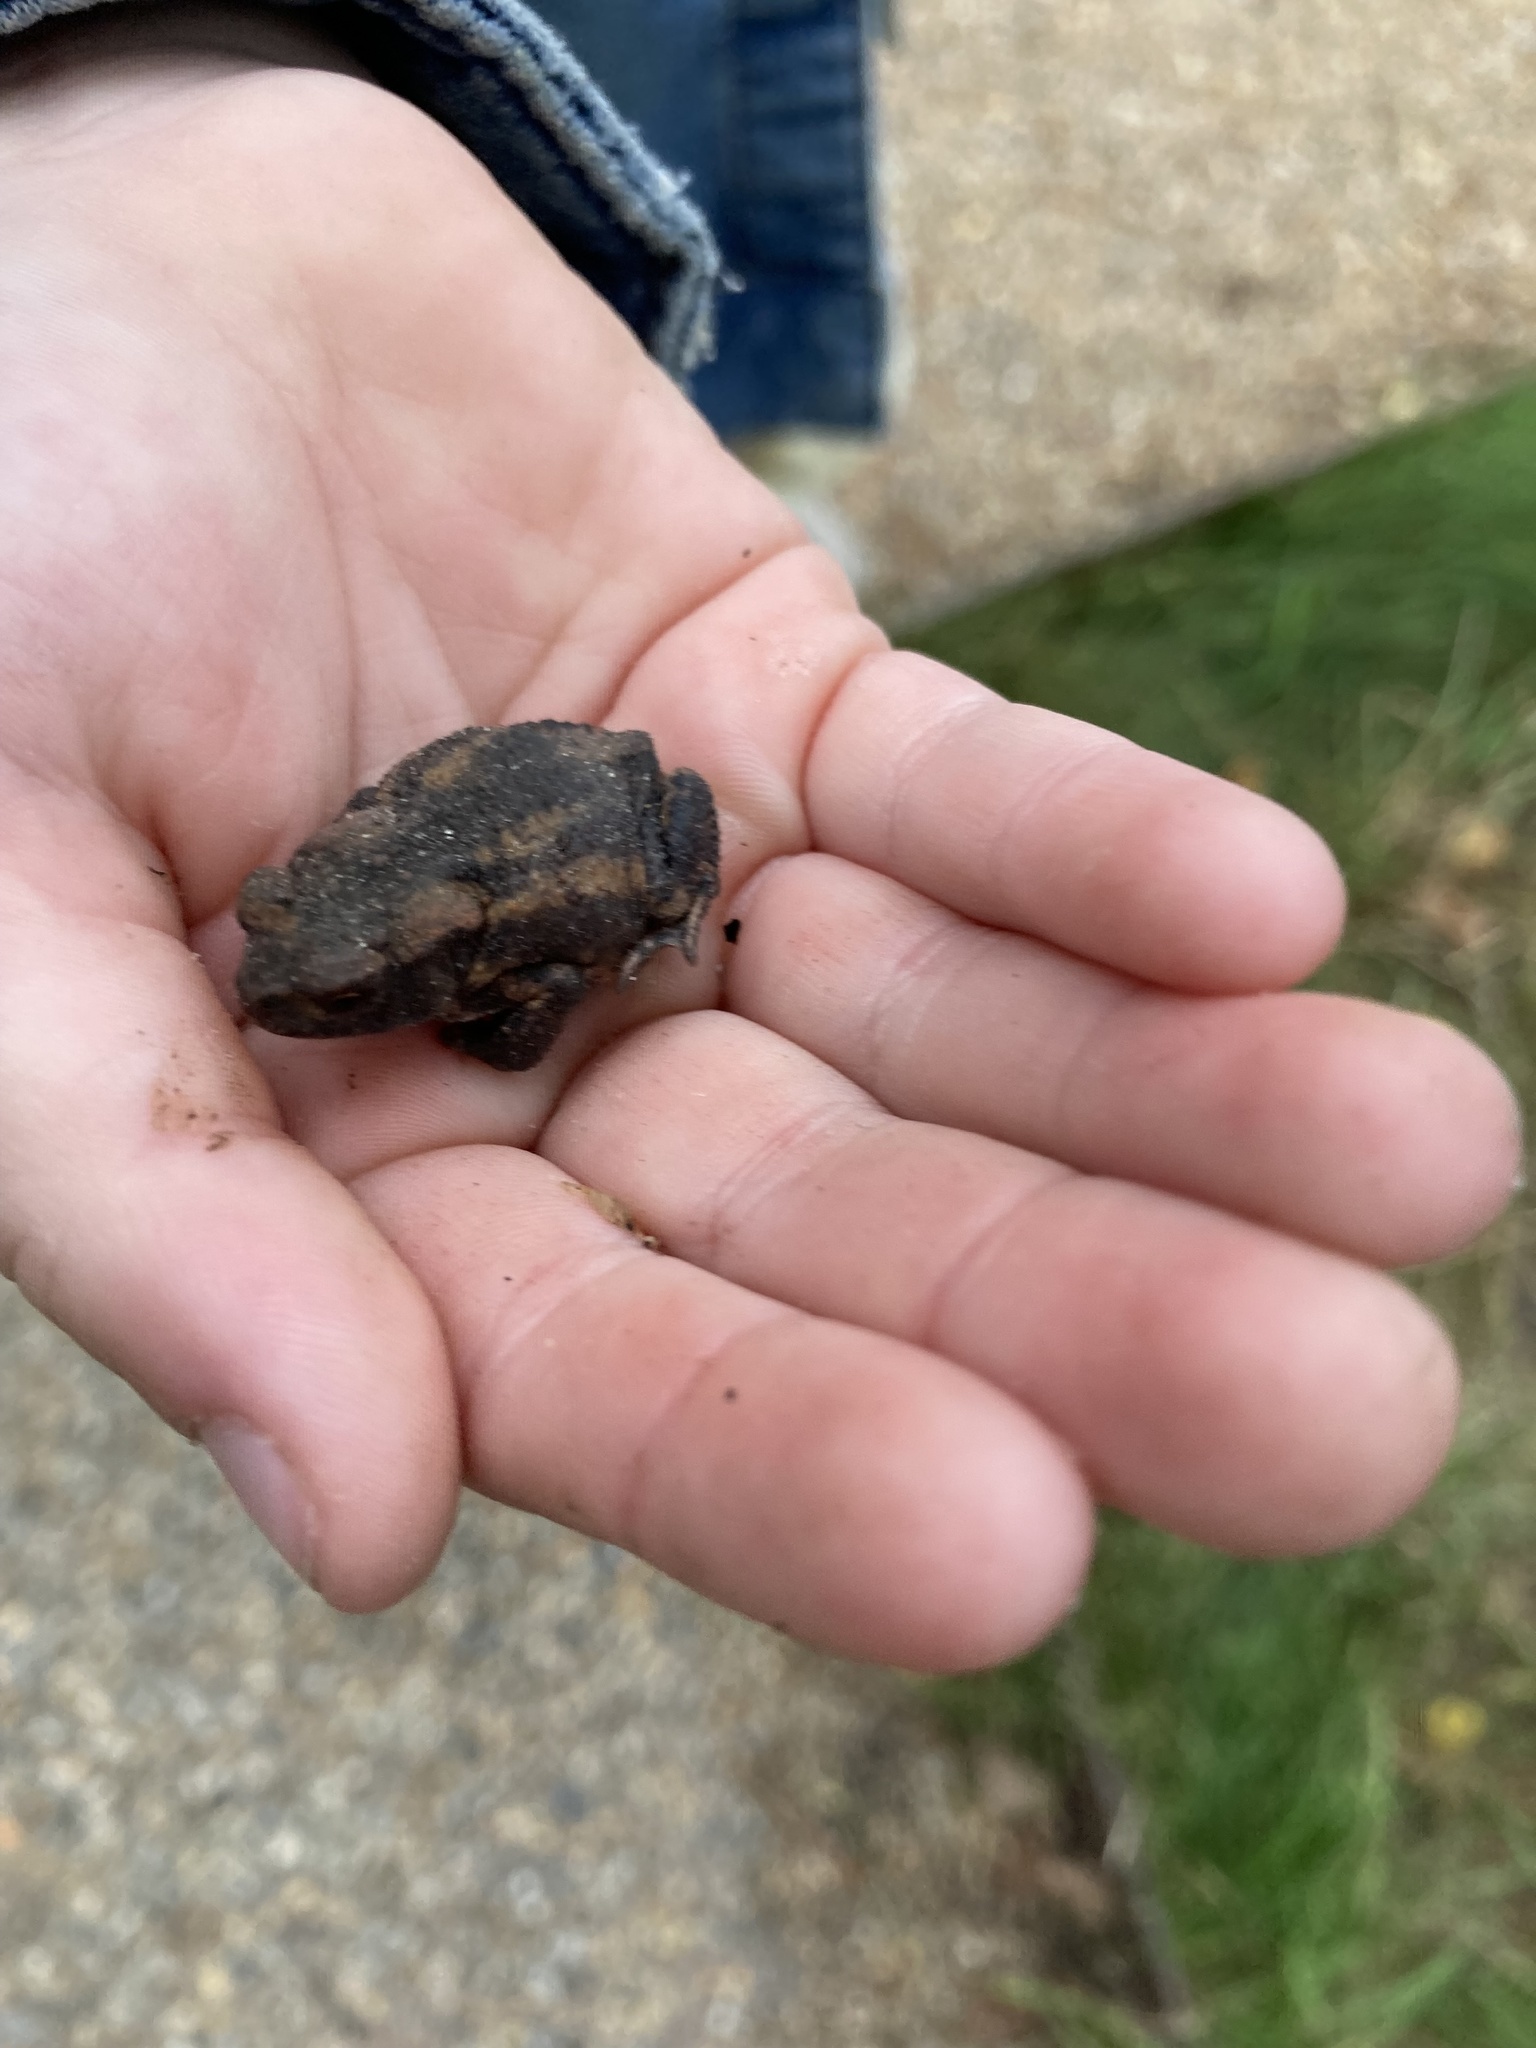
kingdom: Animalia
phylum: Chordata
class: Amphibia
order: Anura
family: Bufonidae
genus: Bufo
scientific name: Bufo bufo
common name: Common toad
